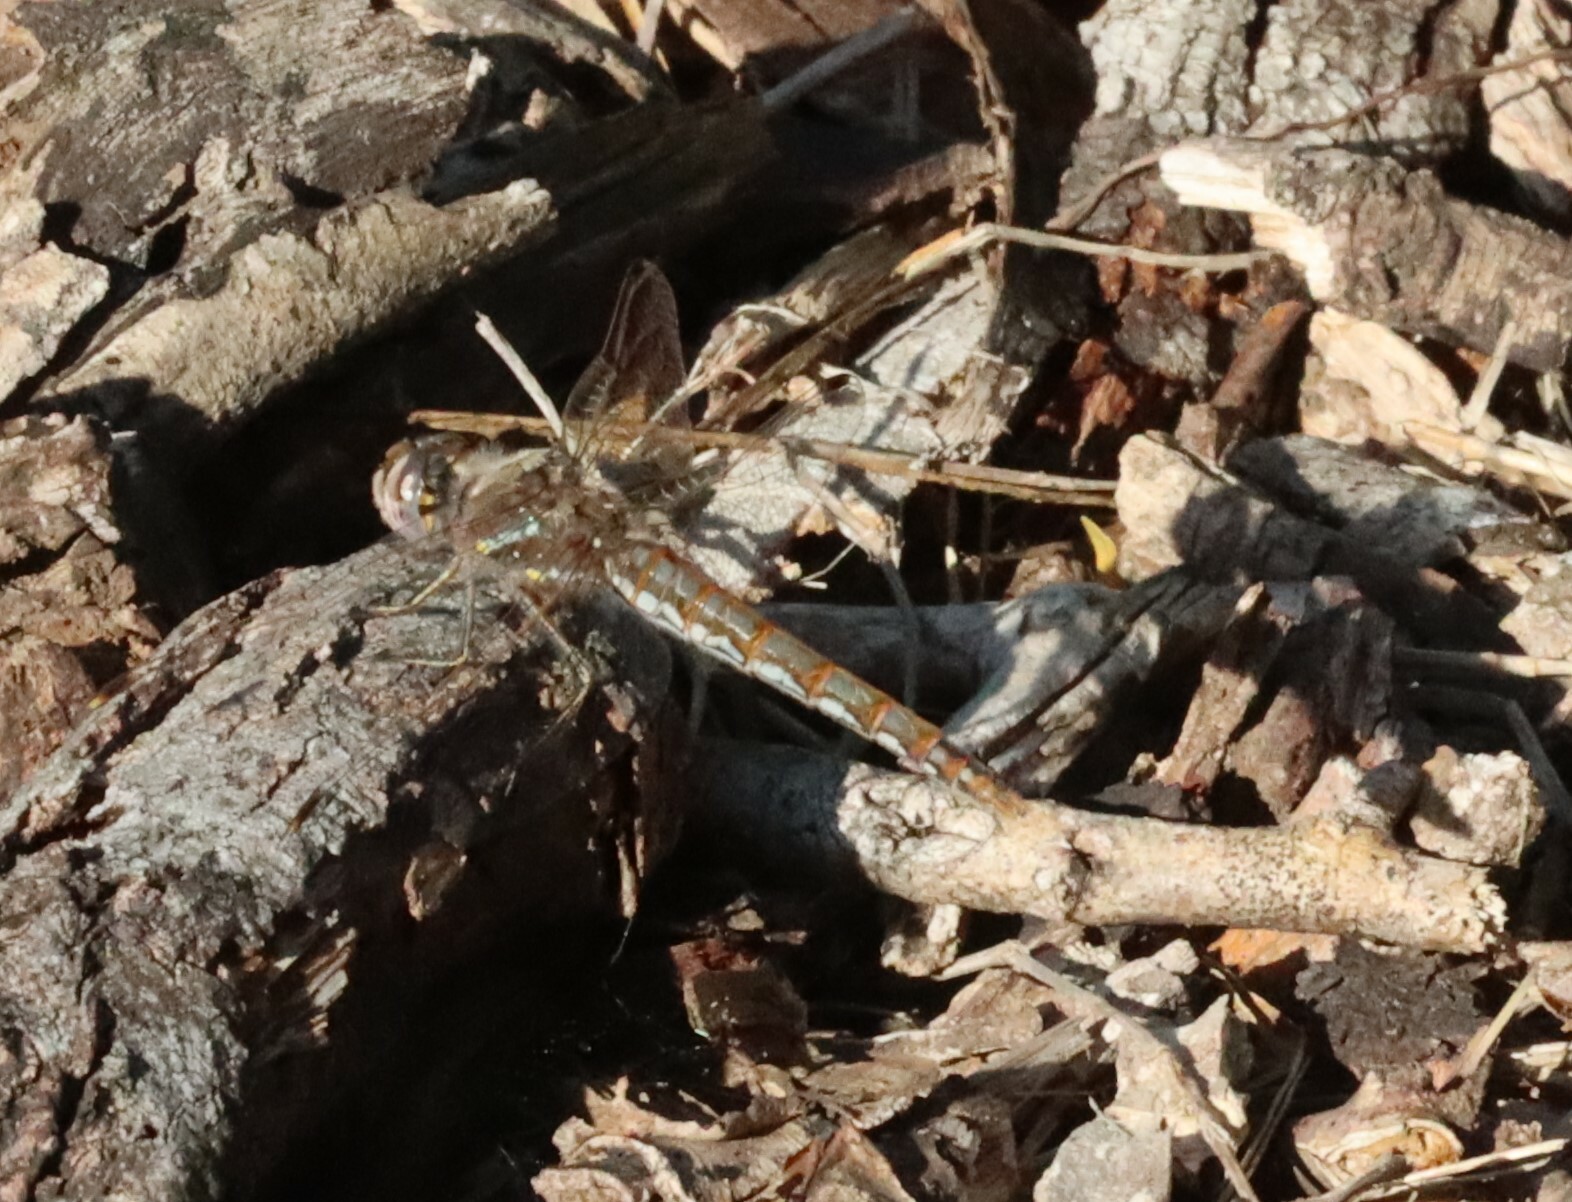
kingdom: Animalia
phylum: Arthropoda
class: Insecta
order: Odonata
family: Libellulidae
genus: Sympetrum
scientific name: Sympetrum corruptum
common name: Variegated meadowhawk
